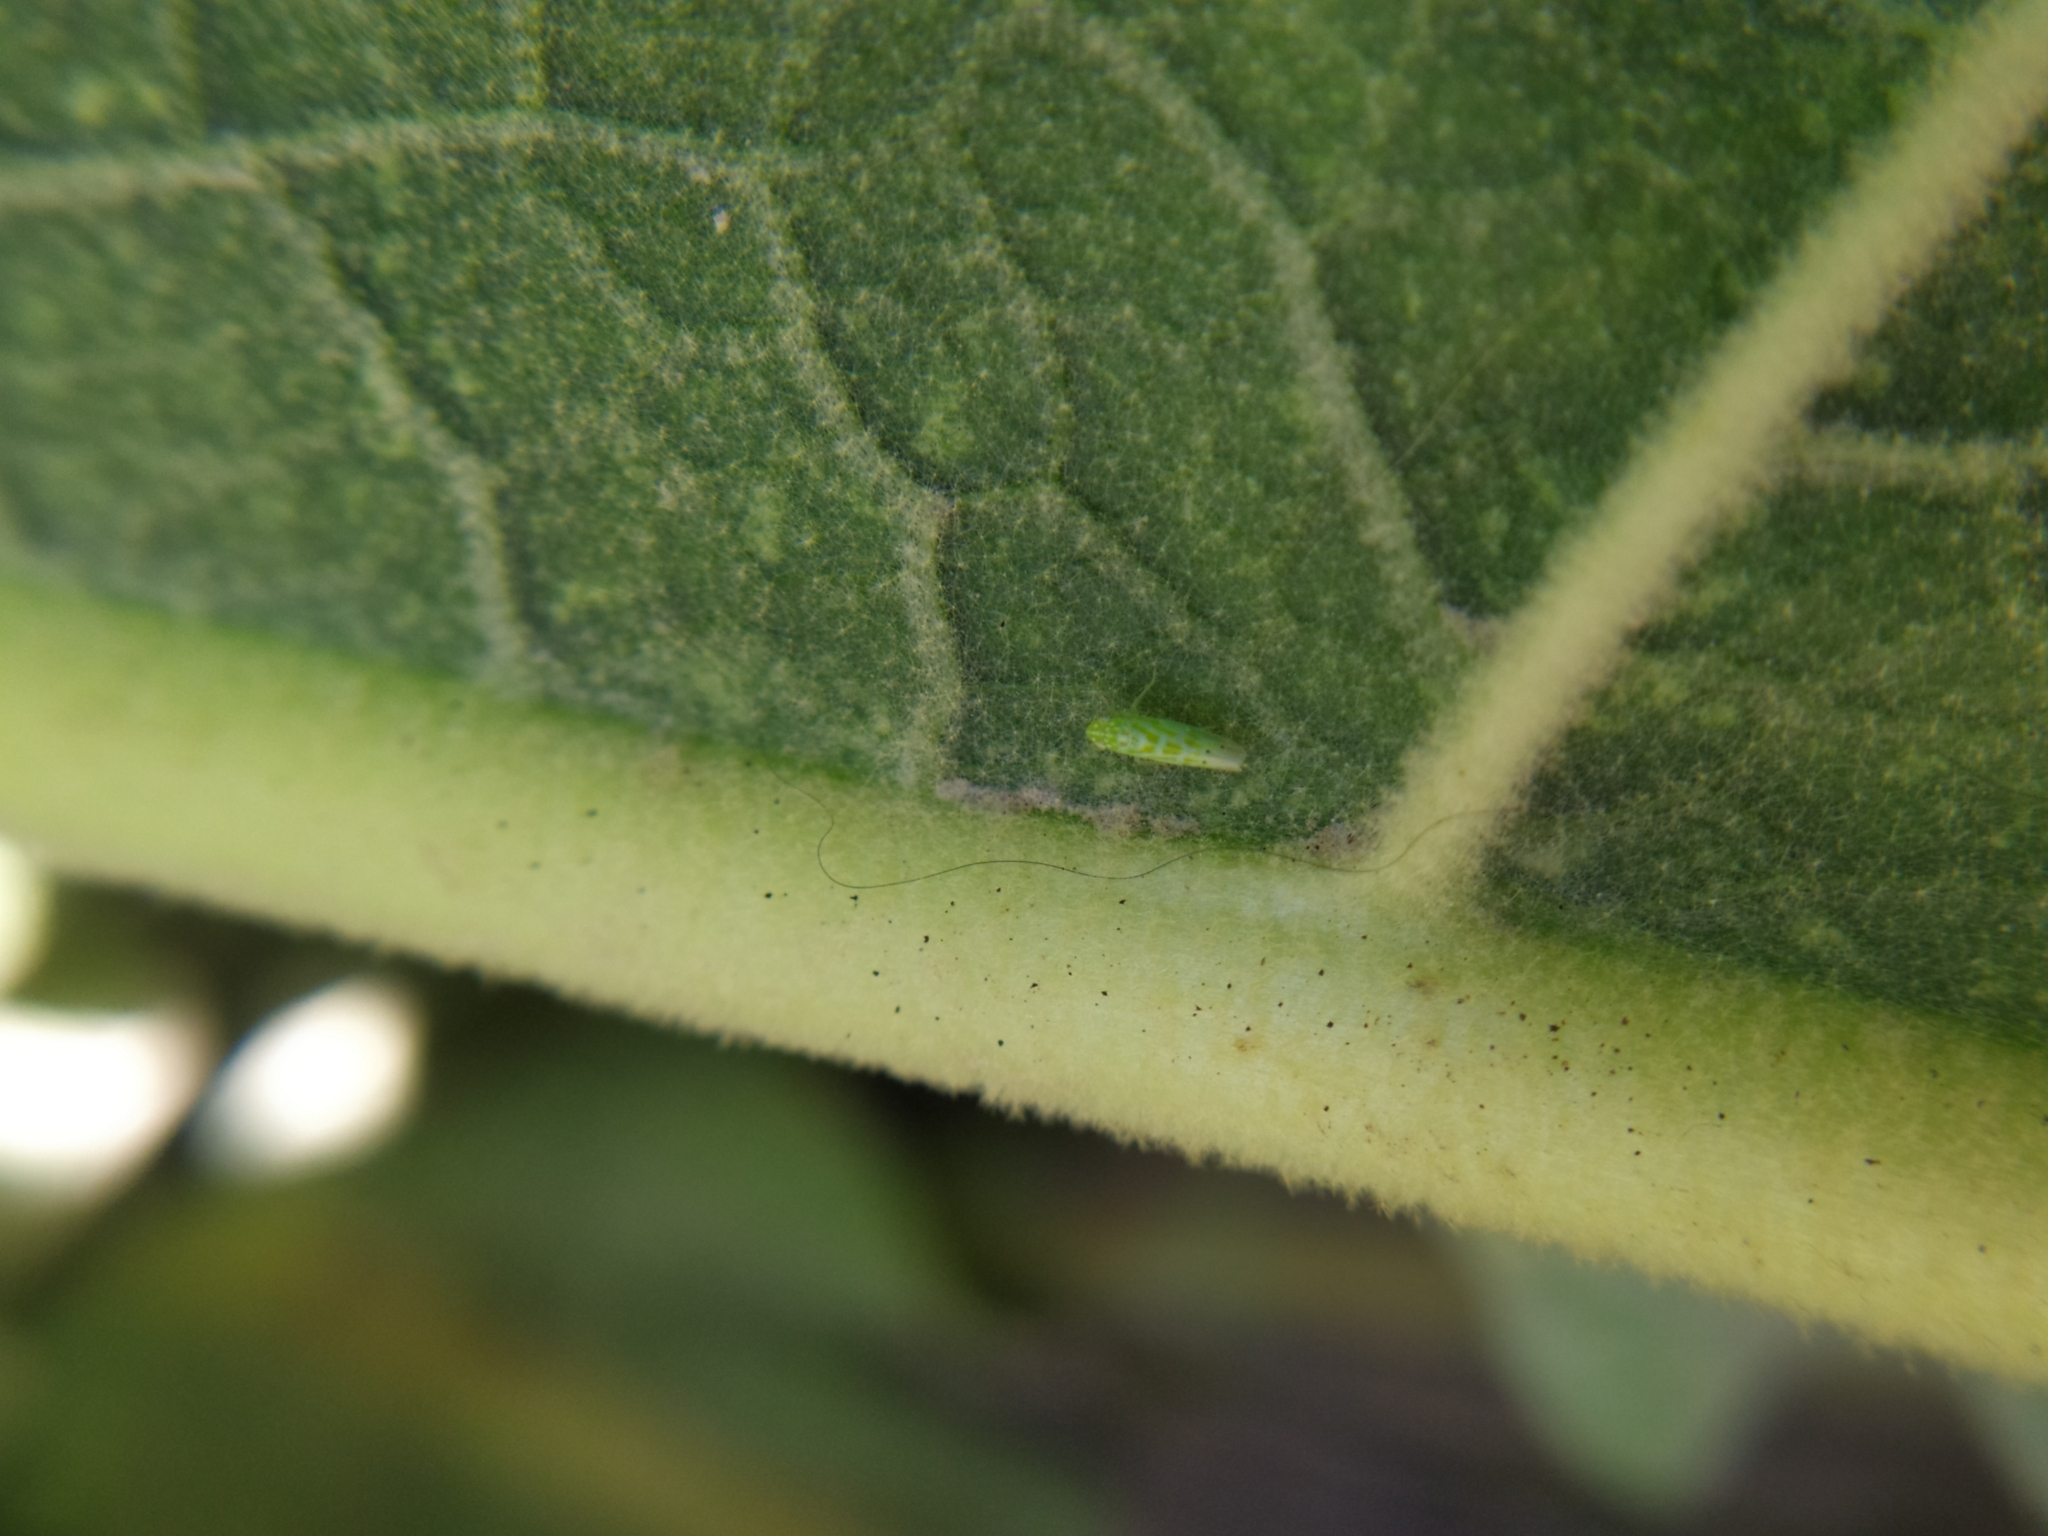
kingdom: Animalia
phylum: Arthropoda
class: Insecta
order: Hemiptera
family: Cicadellidae
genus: Micantulina
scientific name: Micantulina stigmatipennis
